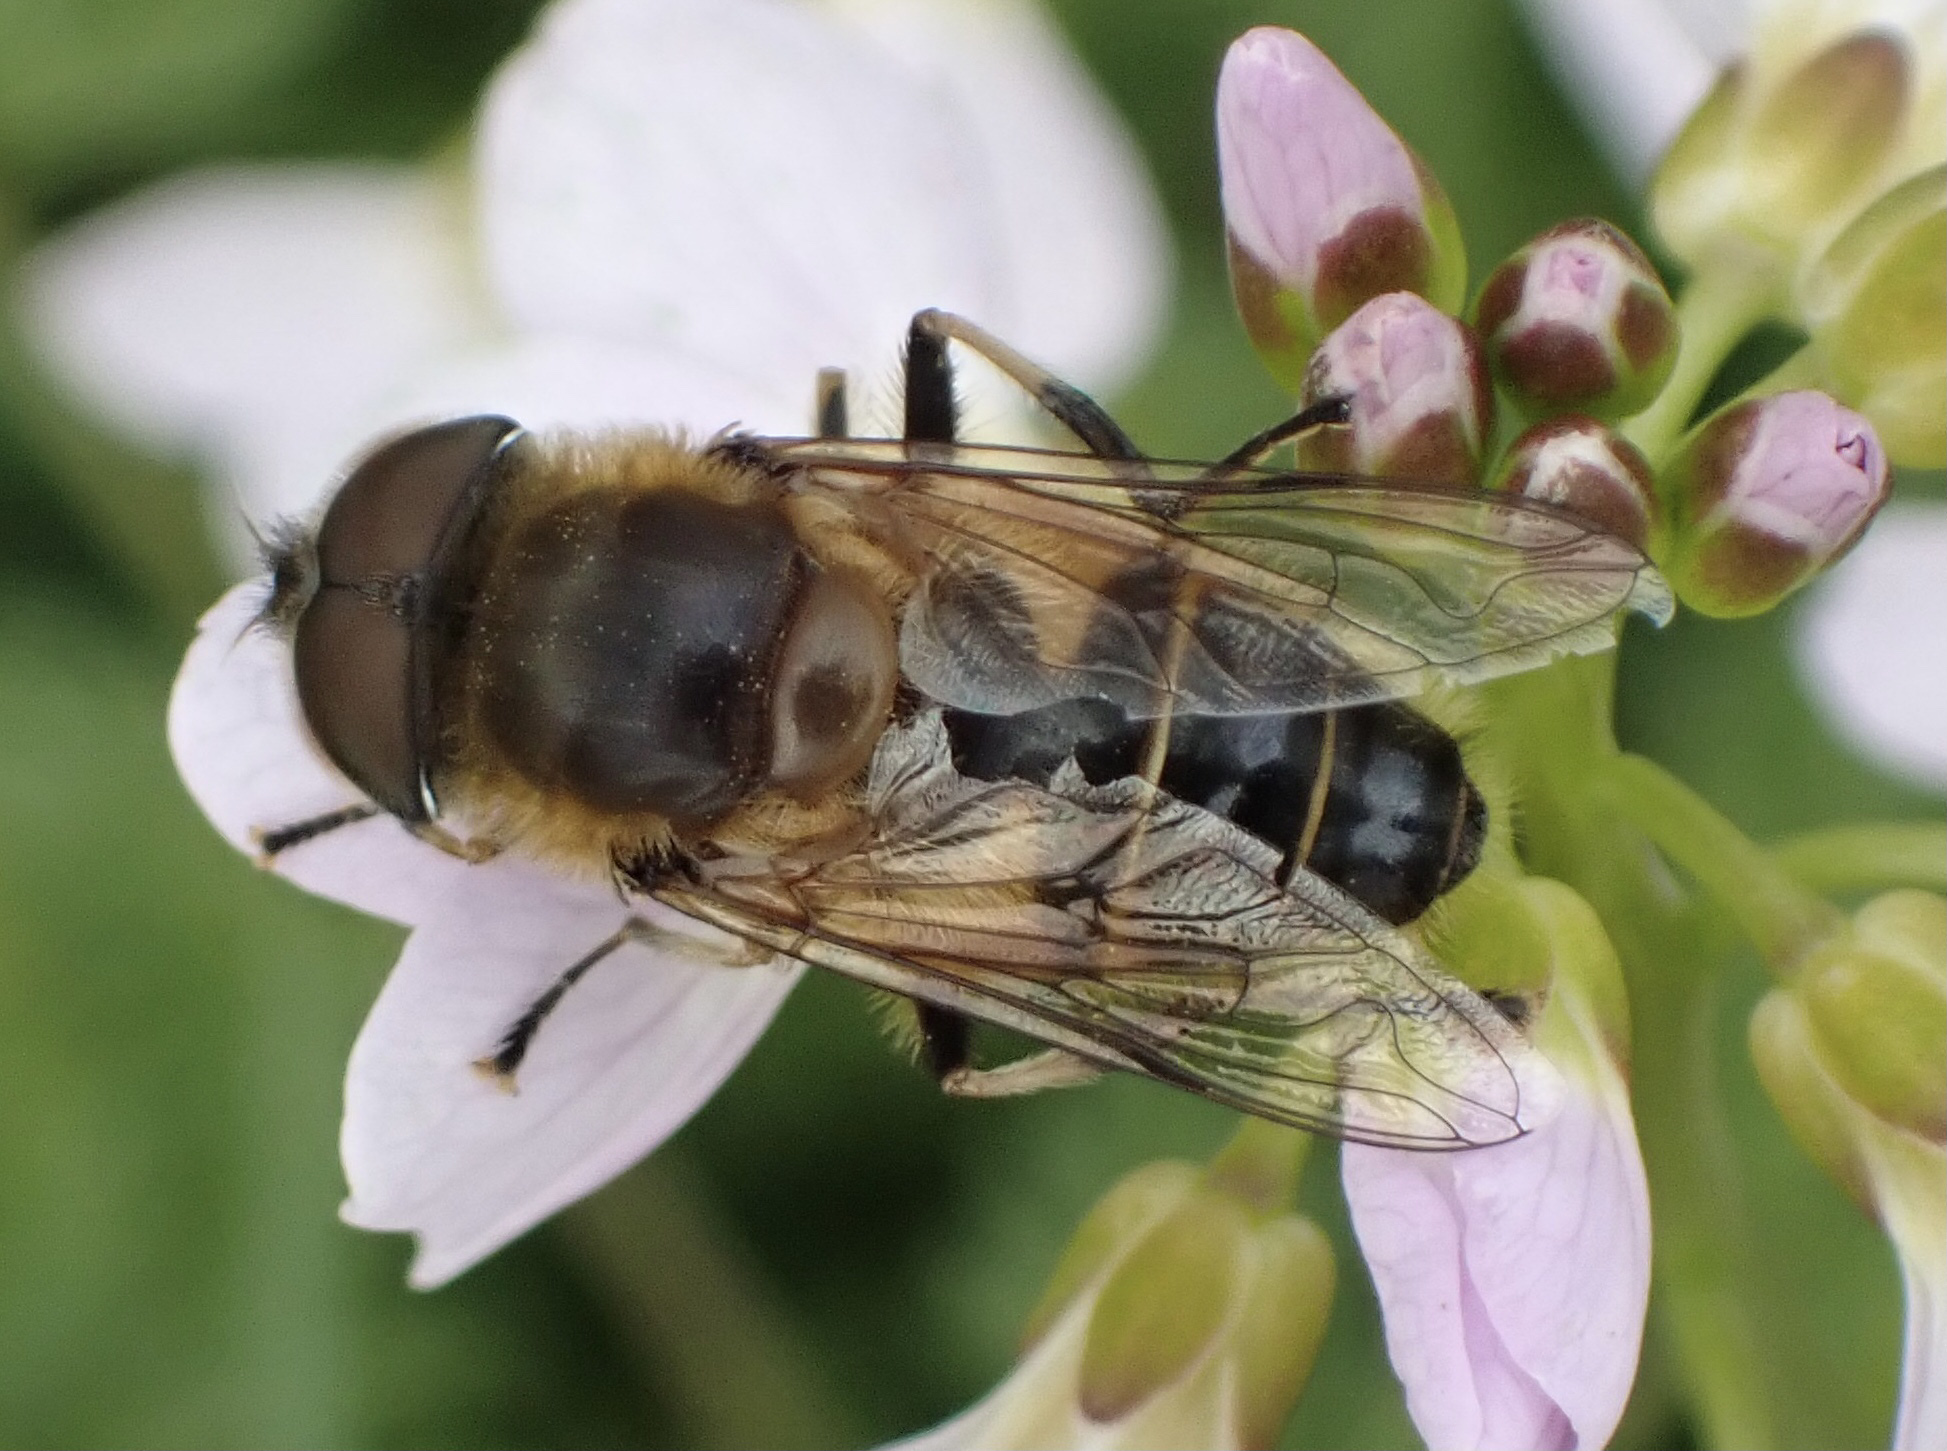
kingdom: Animalia
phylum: Arthropoda
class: Insecta
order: Diptera
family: Syrphidae
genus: Eristalis
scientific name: Eristalis pertinax
